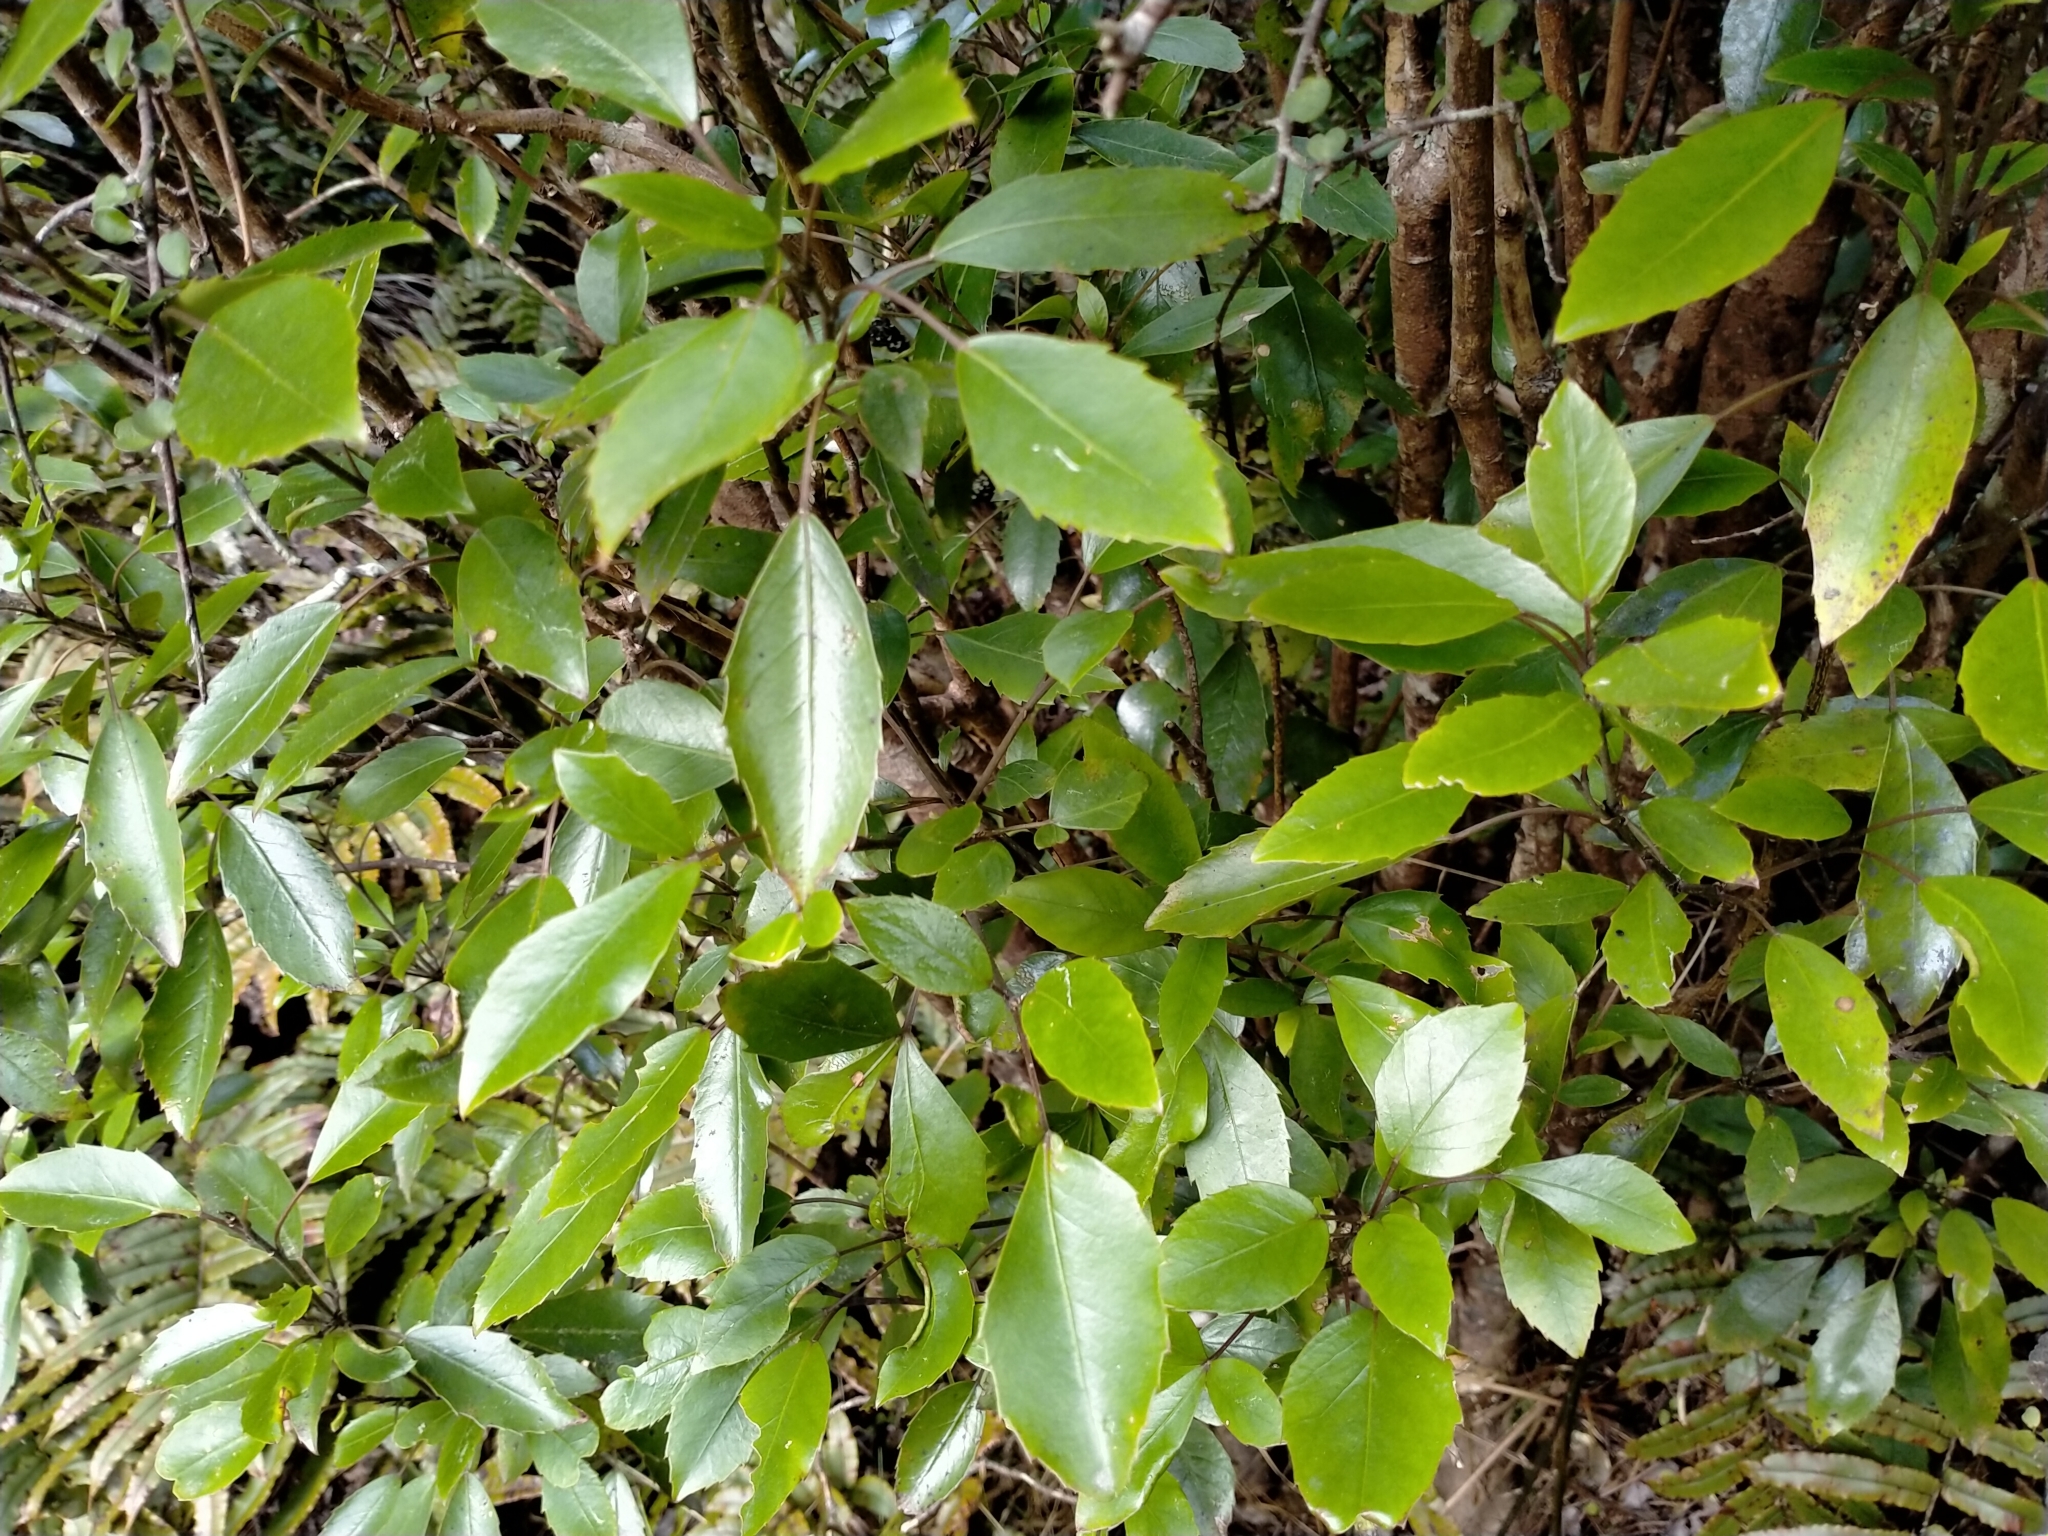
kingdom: Plantae
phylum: Tracheophyta
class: Magnoliopsida
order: Apiales
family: Araliaceae
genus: Raukaua
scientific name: Raukaua simplex
